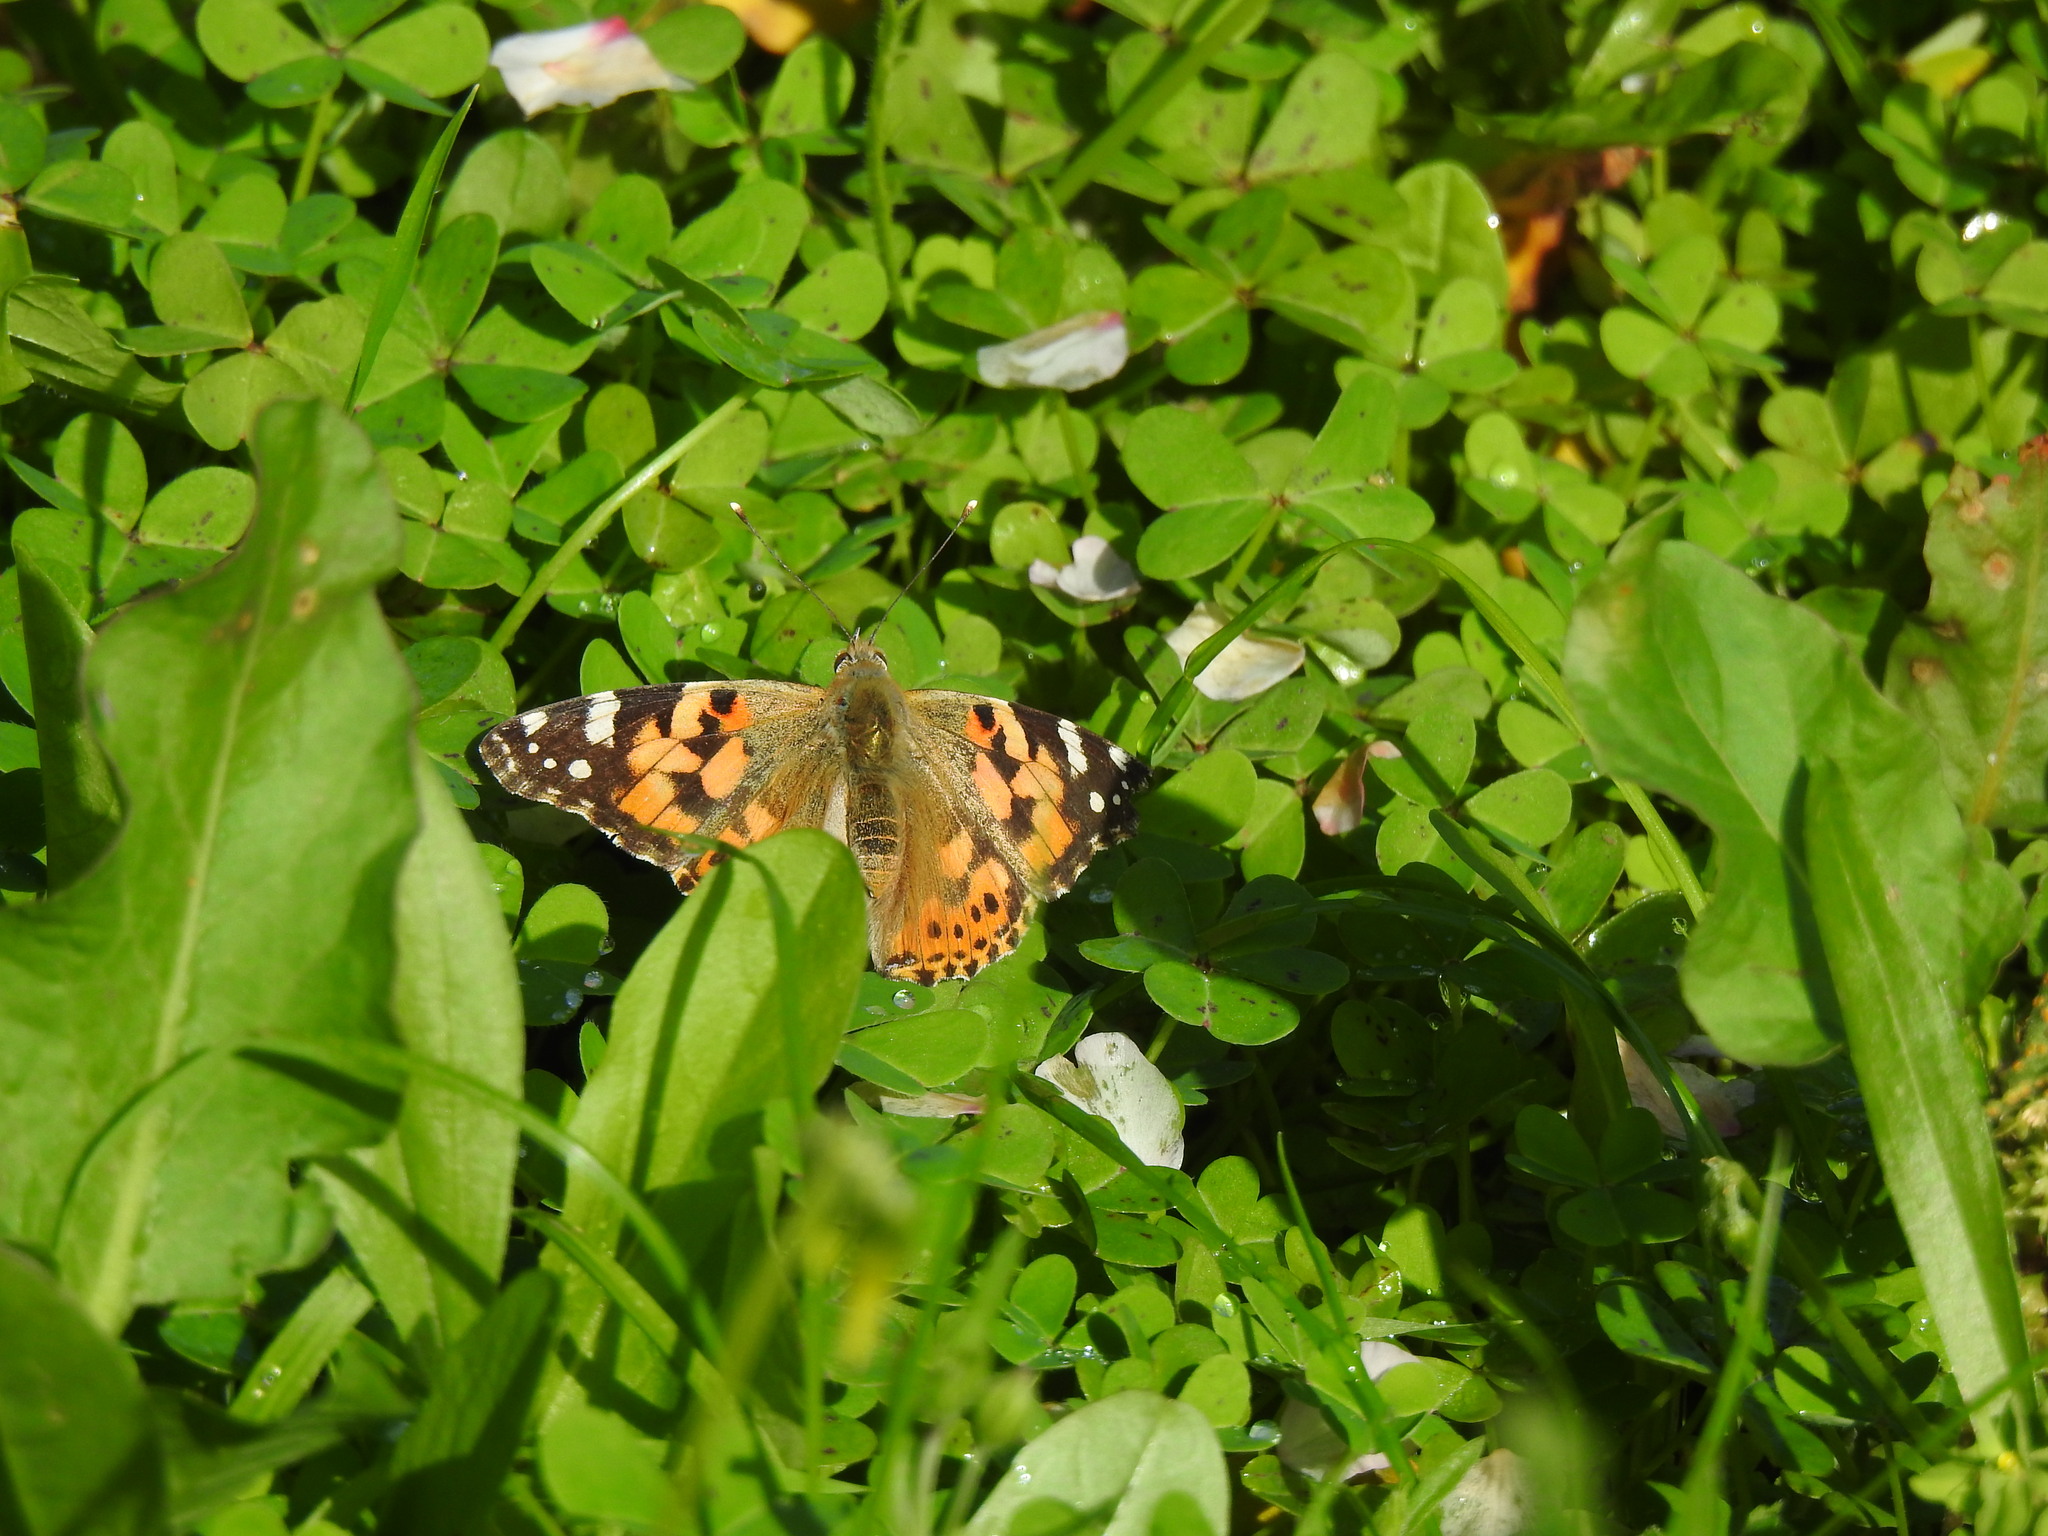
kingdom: Animalia
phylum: Arthropoda
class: Insecta
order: Lepidoptera
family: Nymphalidae
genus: Vanessa
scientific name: Vanessa cardui
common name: Painted lady
